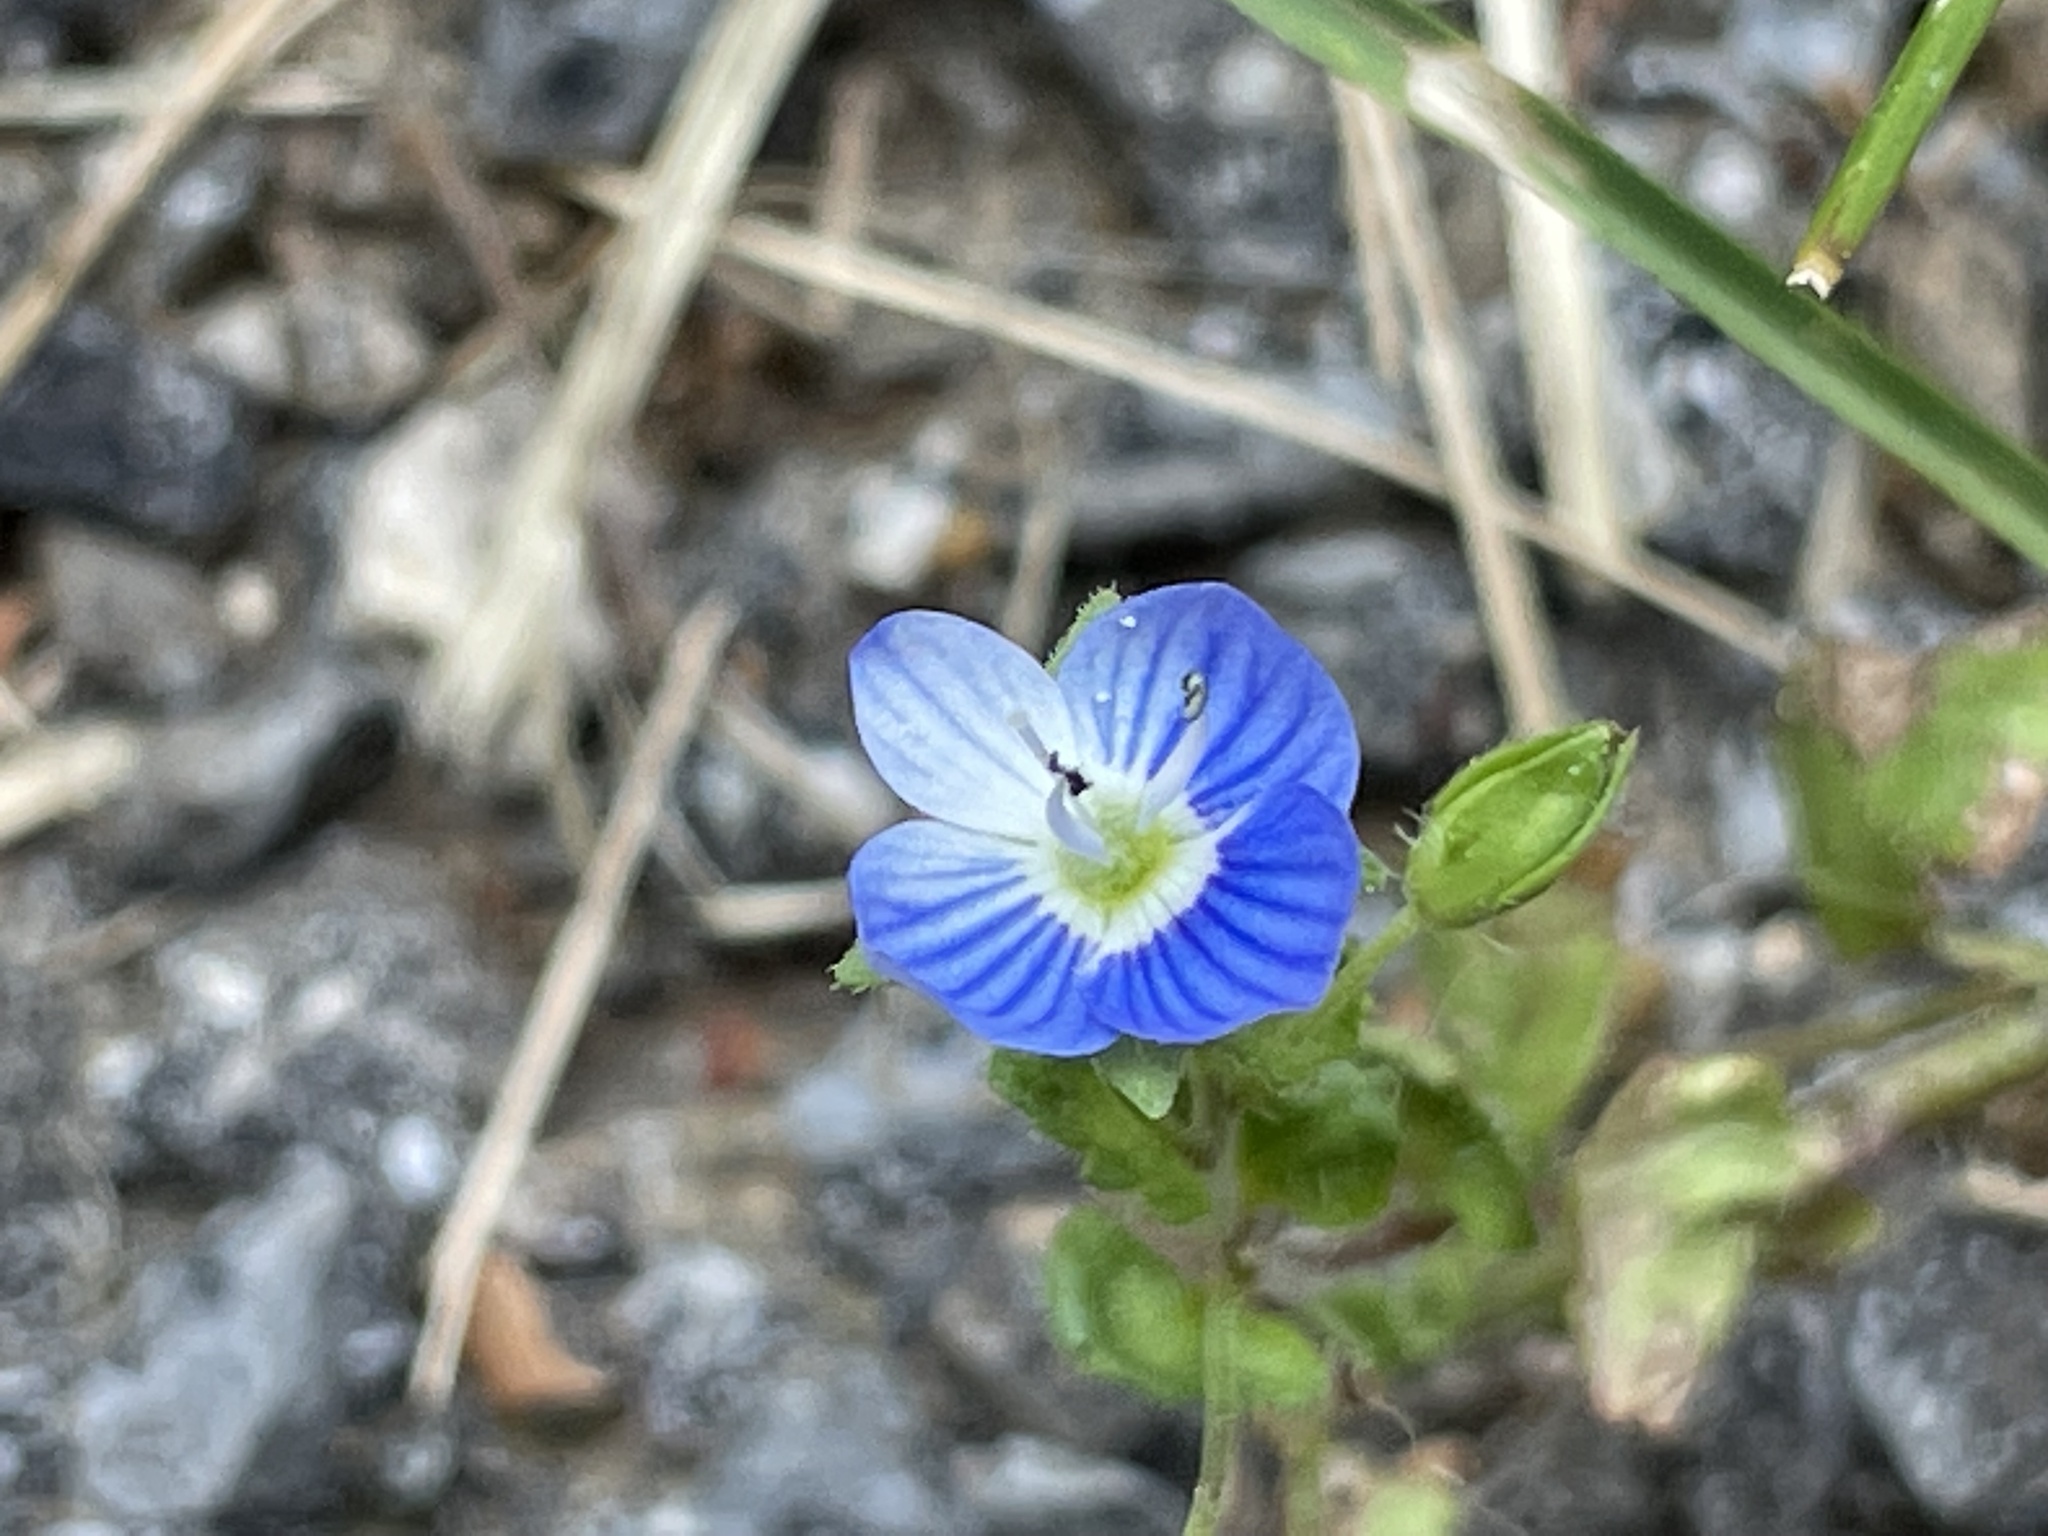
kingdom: Plantae
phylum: Tracheophyta
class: Magnoliopsida
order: Lamiales
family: Plantaginaceae
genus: Veronica
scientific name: Veronica persica
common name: Common field-speedwell
